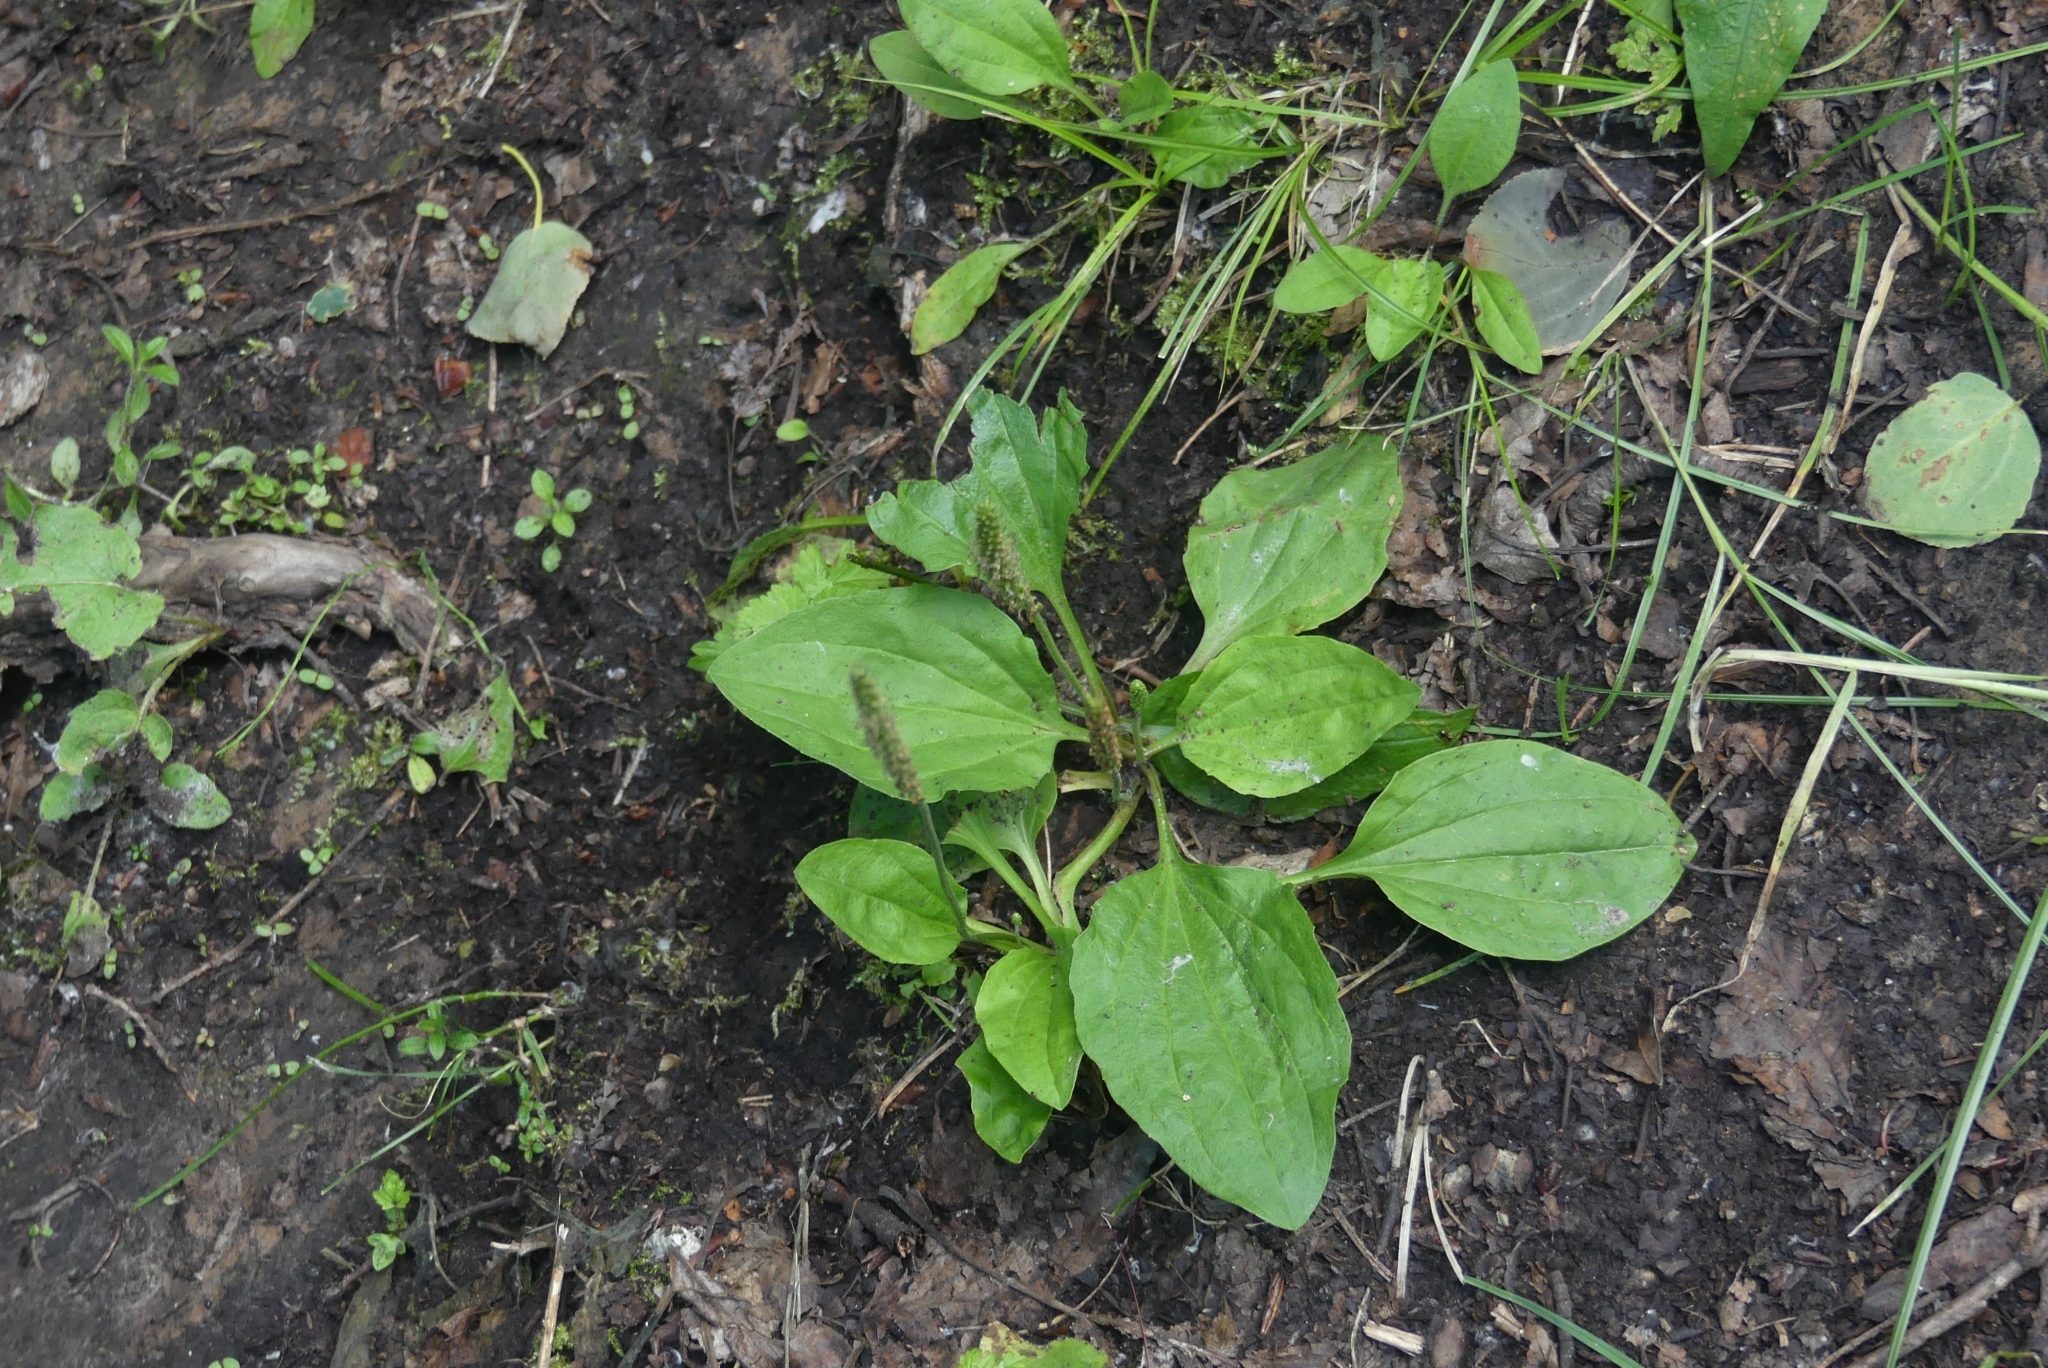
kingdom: Plantae
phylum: Tracheophyta
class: Magnoliopsida
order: Lamiales
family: Plantaginaceae
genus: Plantago
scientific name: Plantago major
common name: Common plantain
